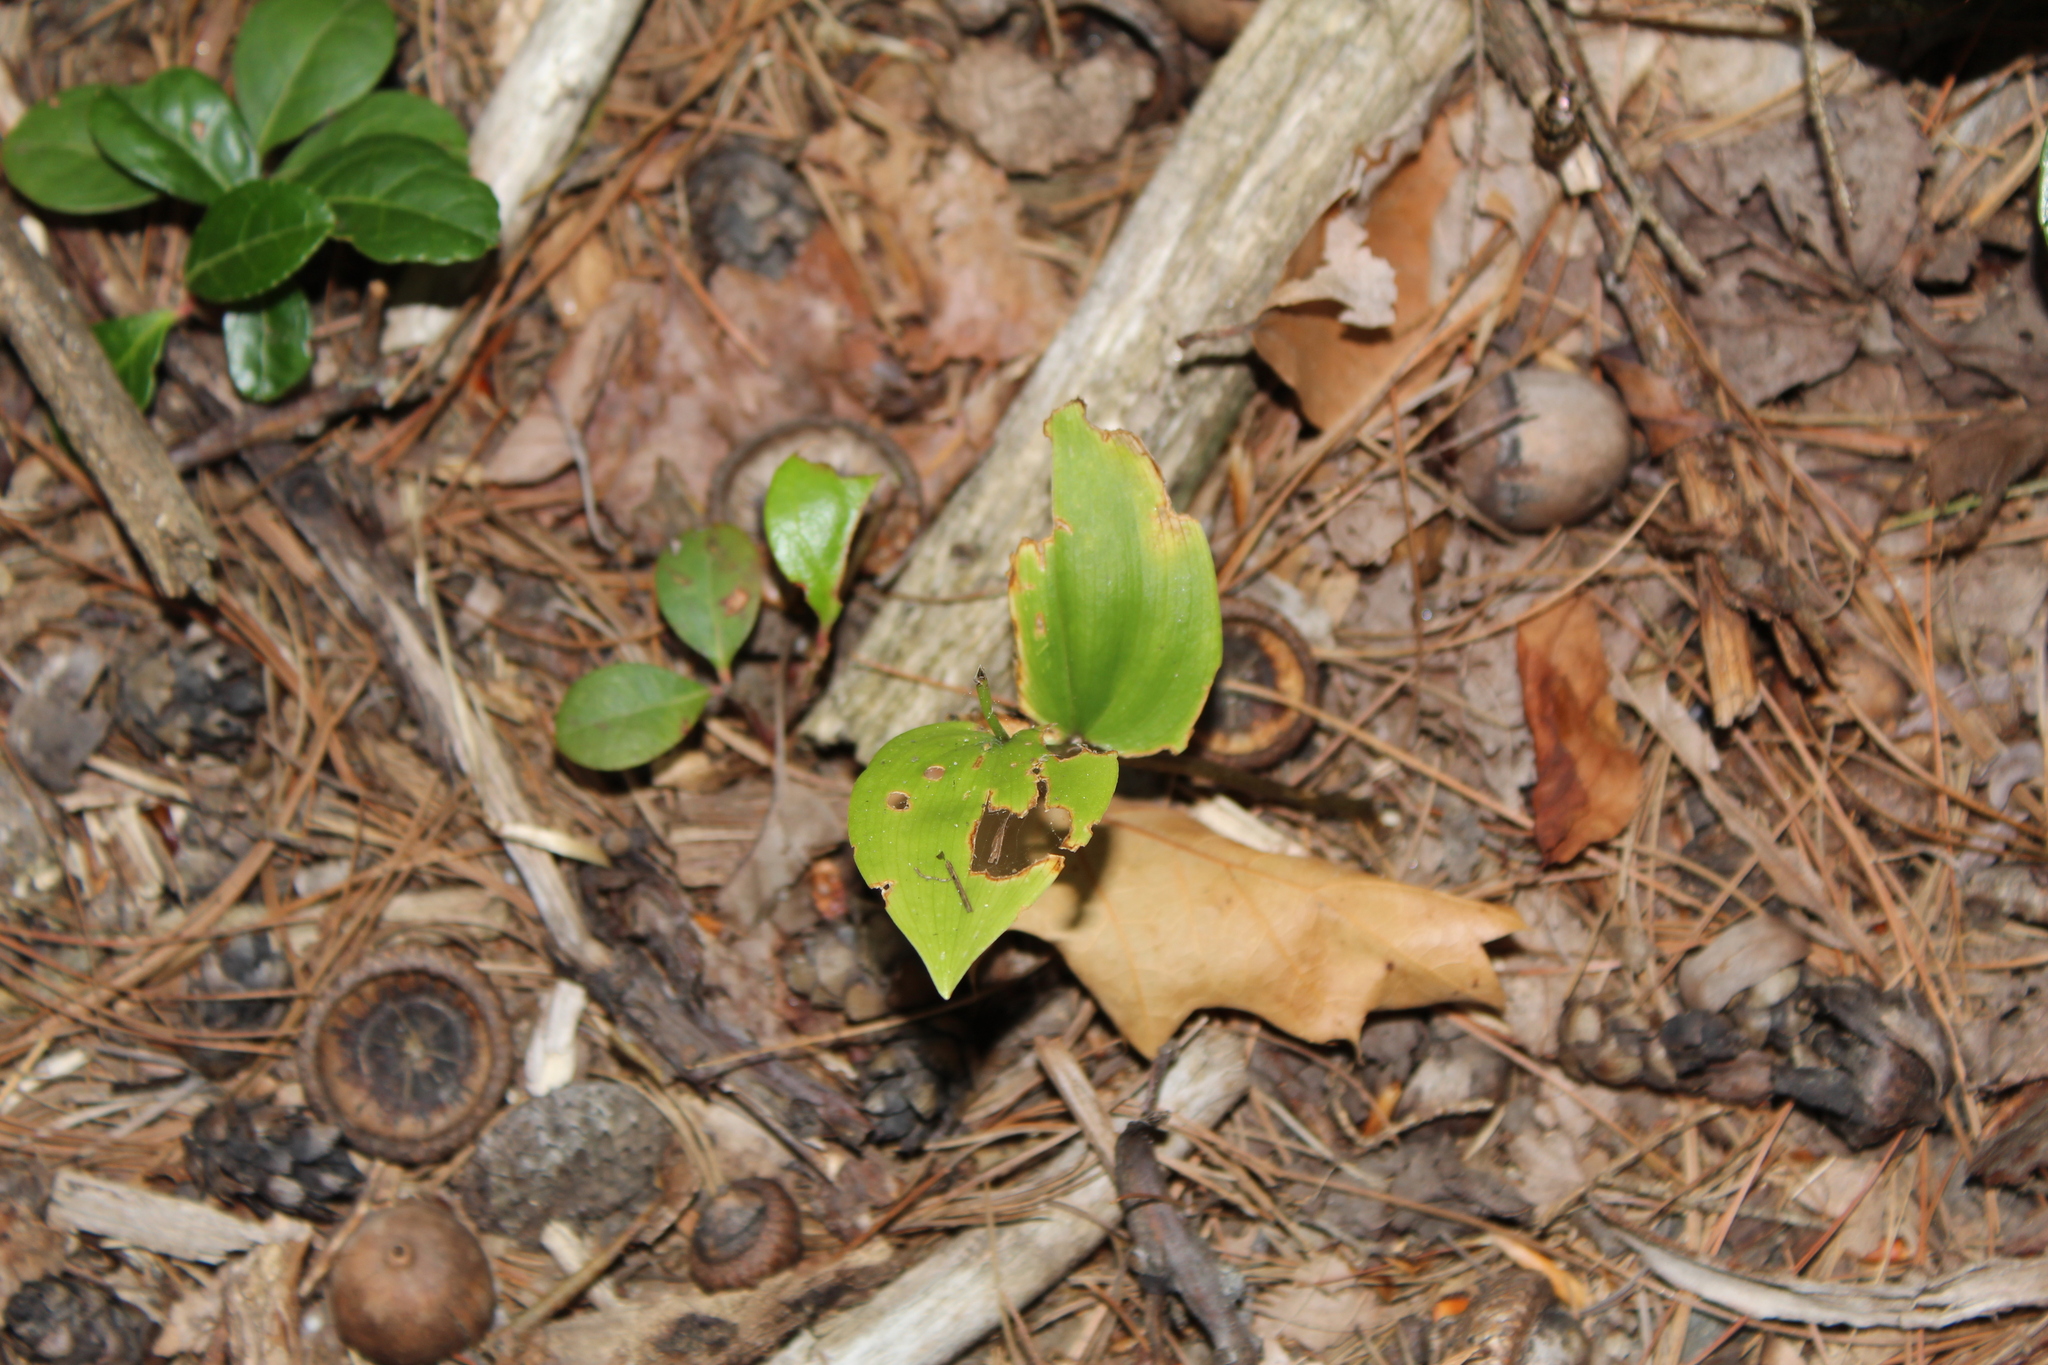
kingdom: Plantae
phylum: Tracheophyta
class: Liliopsida
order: Asparagales
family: Asparagaceae
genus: Maianthemum
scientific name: Maianthemum canadense
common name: False lily-of-the-valley
